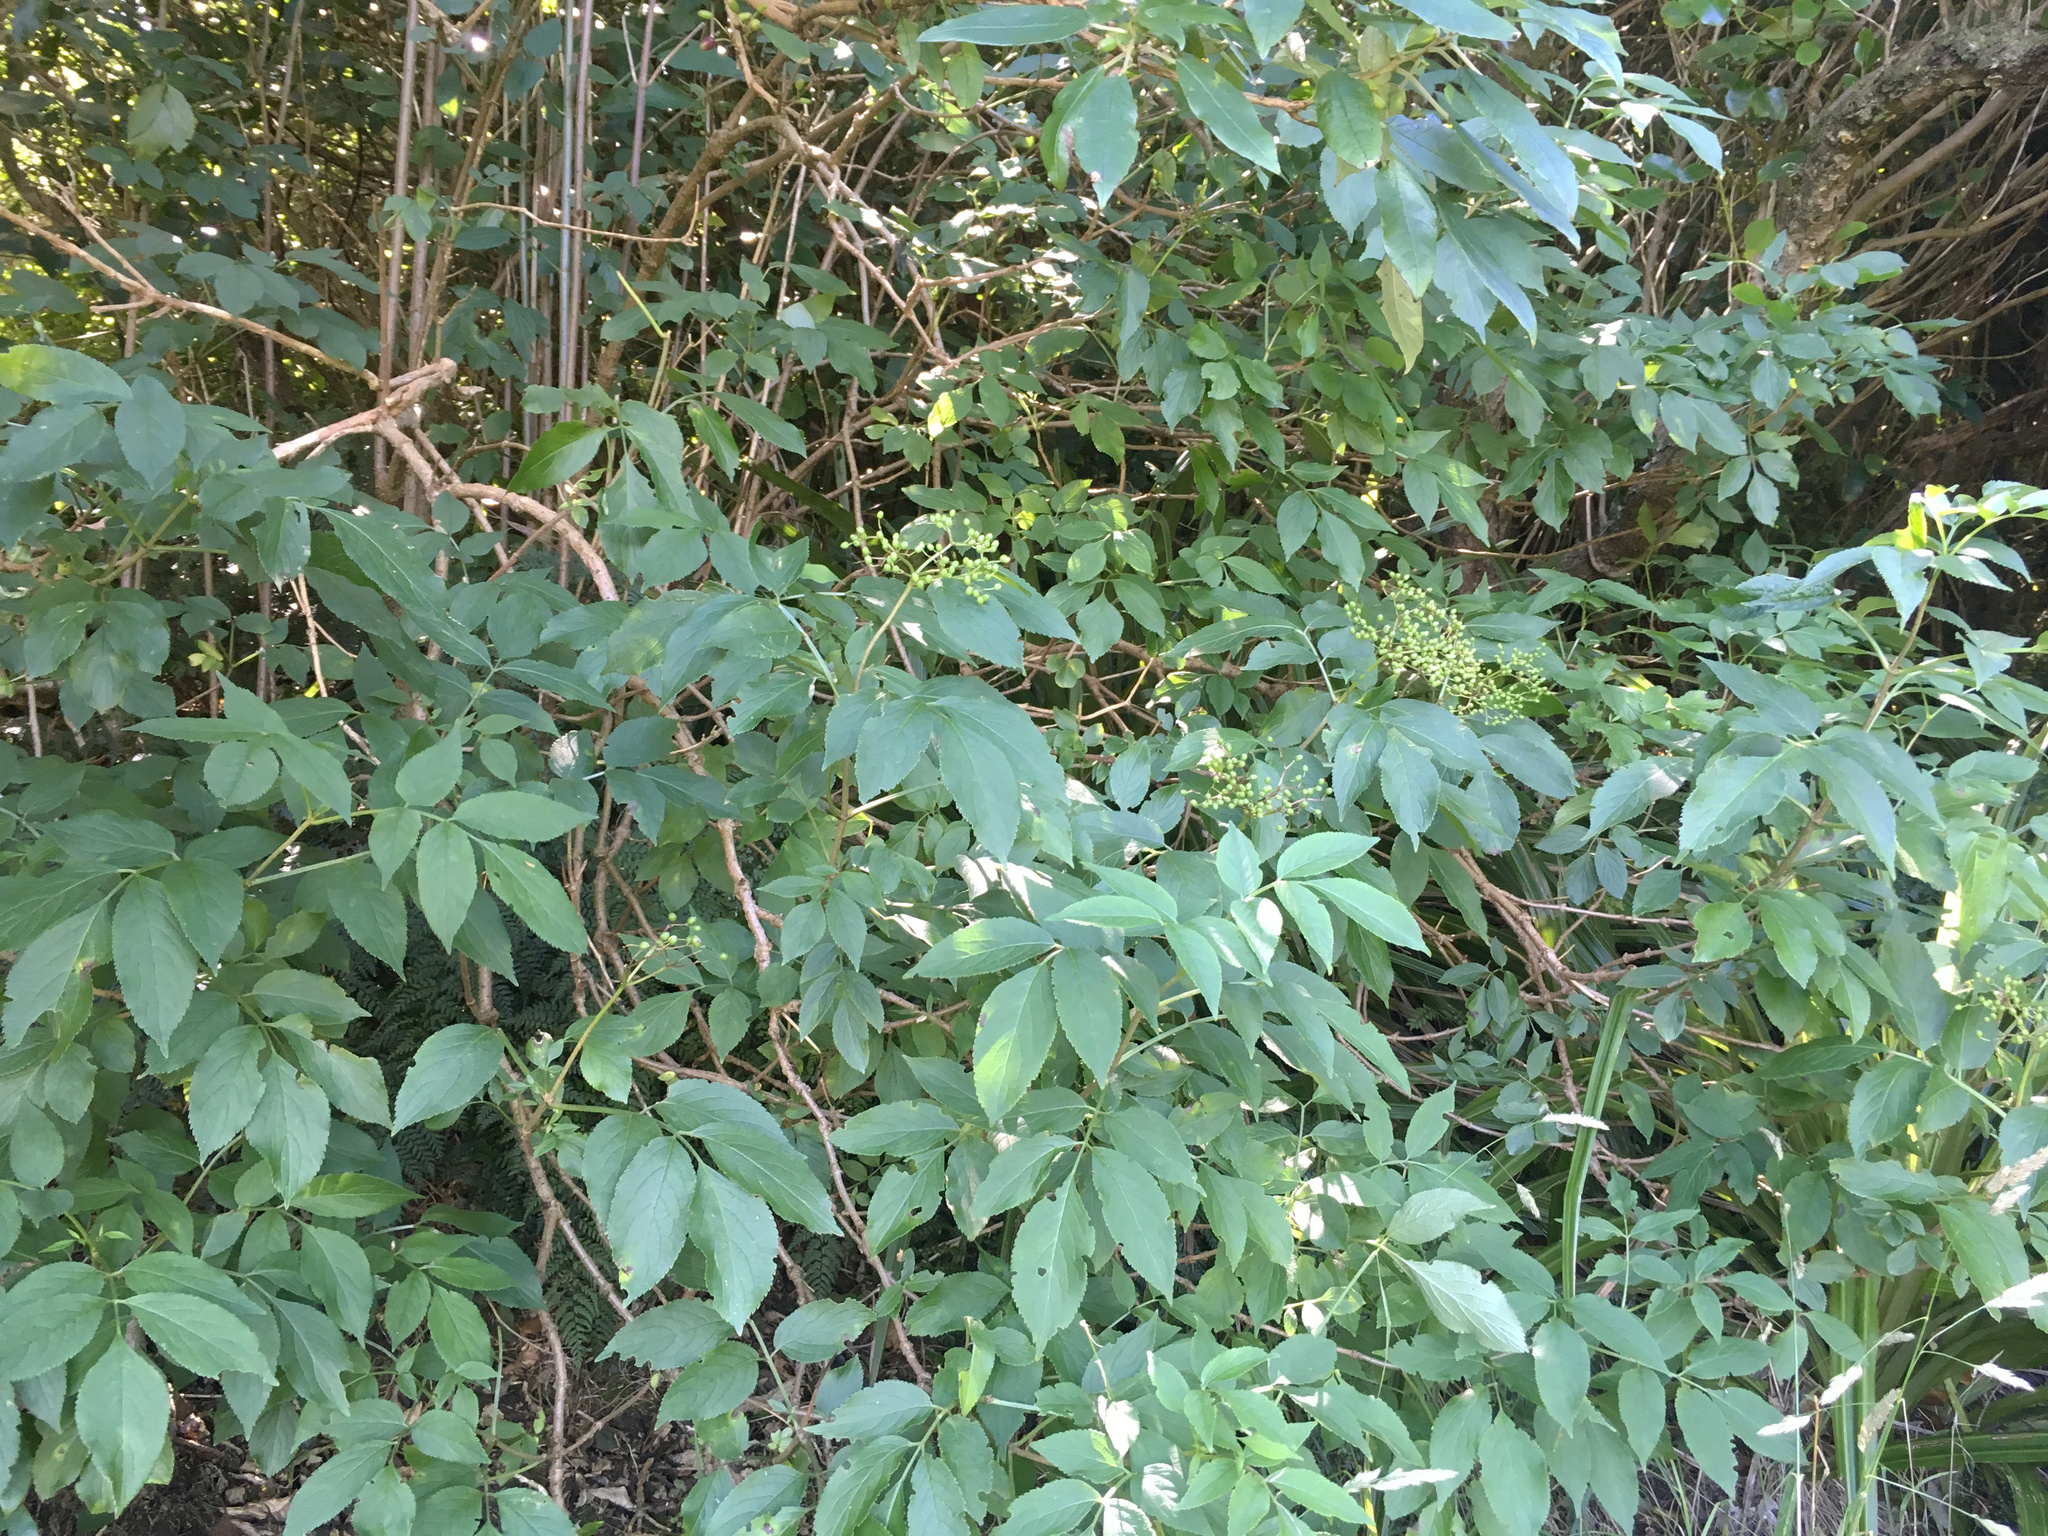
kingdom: Plantae
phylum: Tracheophyta
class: Magnoliopsida
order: Dipsacales
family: Viburnaceae
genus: Sambucus
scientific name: Sambucus nigra
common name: Elder
